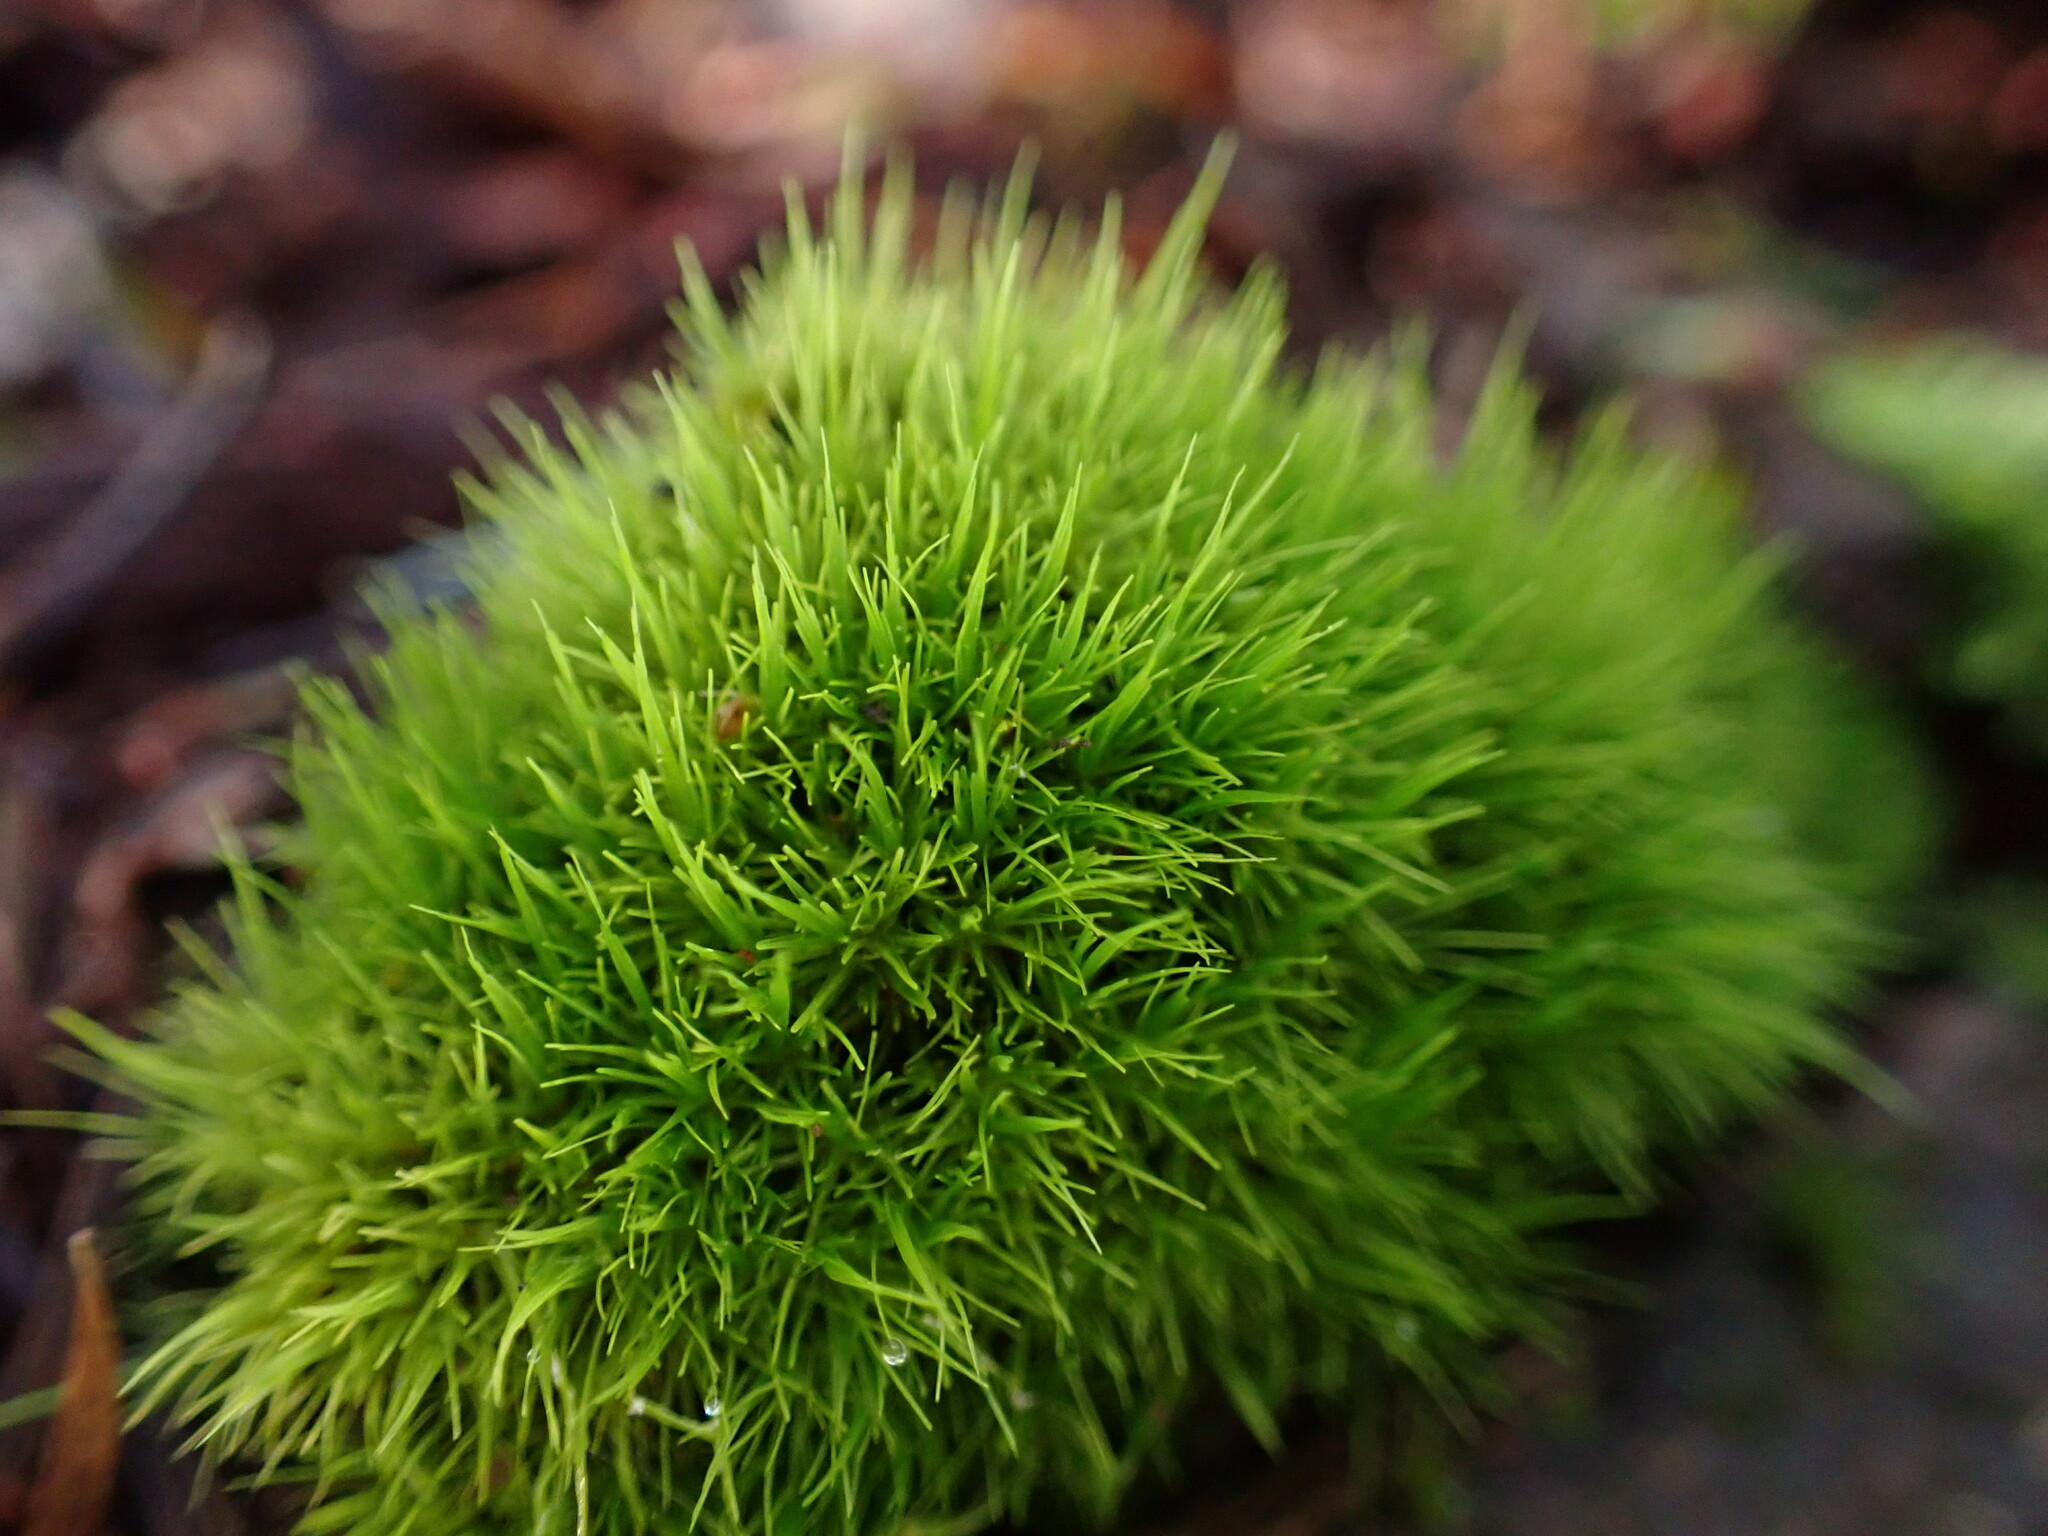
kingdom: Plantae
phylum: Bryophyta
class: Bryopsida
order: Dicranales
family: Dicranaceae
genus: Orthodicranum
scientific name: Orthodicranum tauricum
